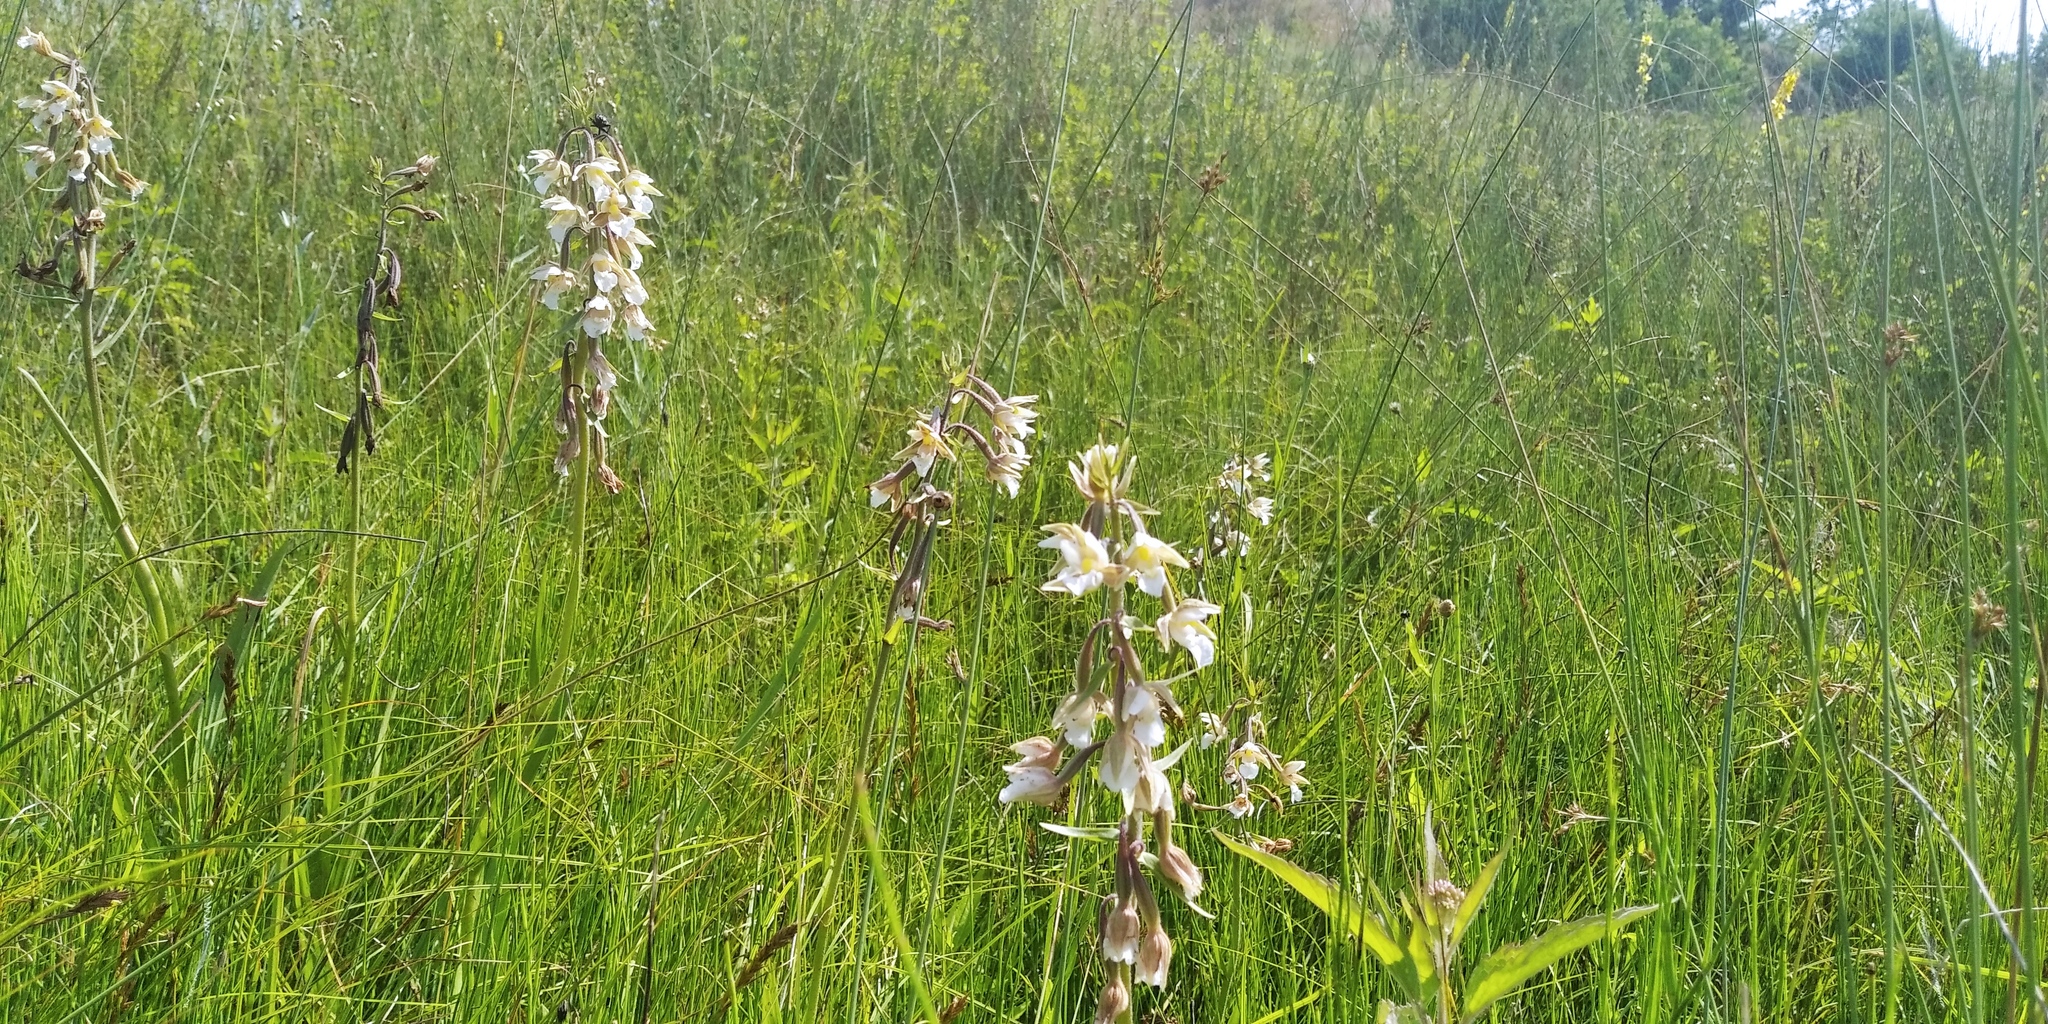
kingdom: Plantae
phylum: Tracheophyta
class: Liliopsida
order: Asparagales
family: Orchidaceae
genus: Epipactis
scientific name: Epipactis palustris
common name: Marsh helleborine
